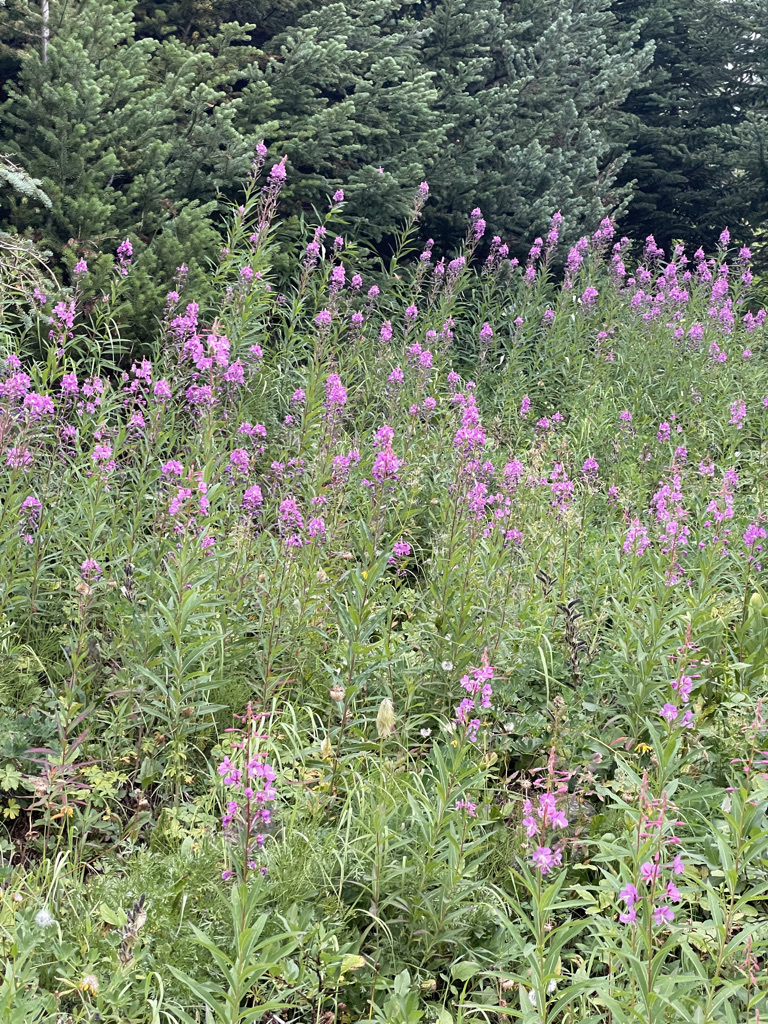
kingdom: Plantae
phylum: Tracheophyta
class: Magnoliopsida
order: Myrtales
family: Onagraceae
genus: Chamaenerion
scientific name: Chamaenerion angustifolium
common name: Fireweed
